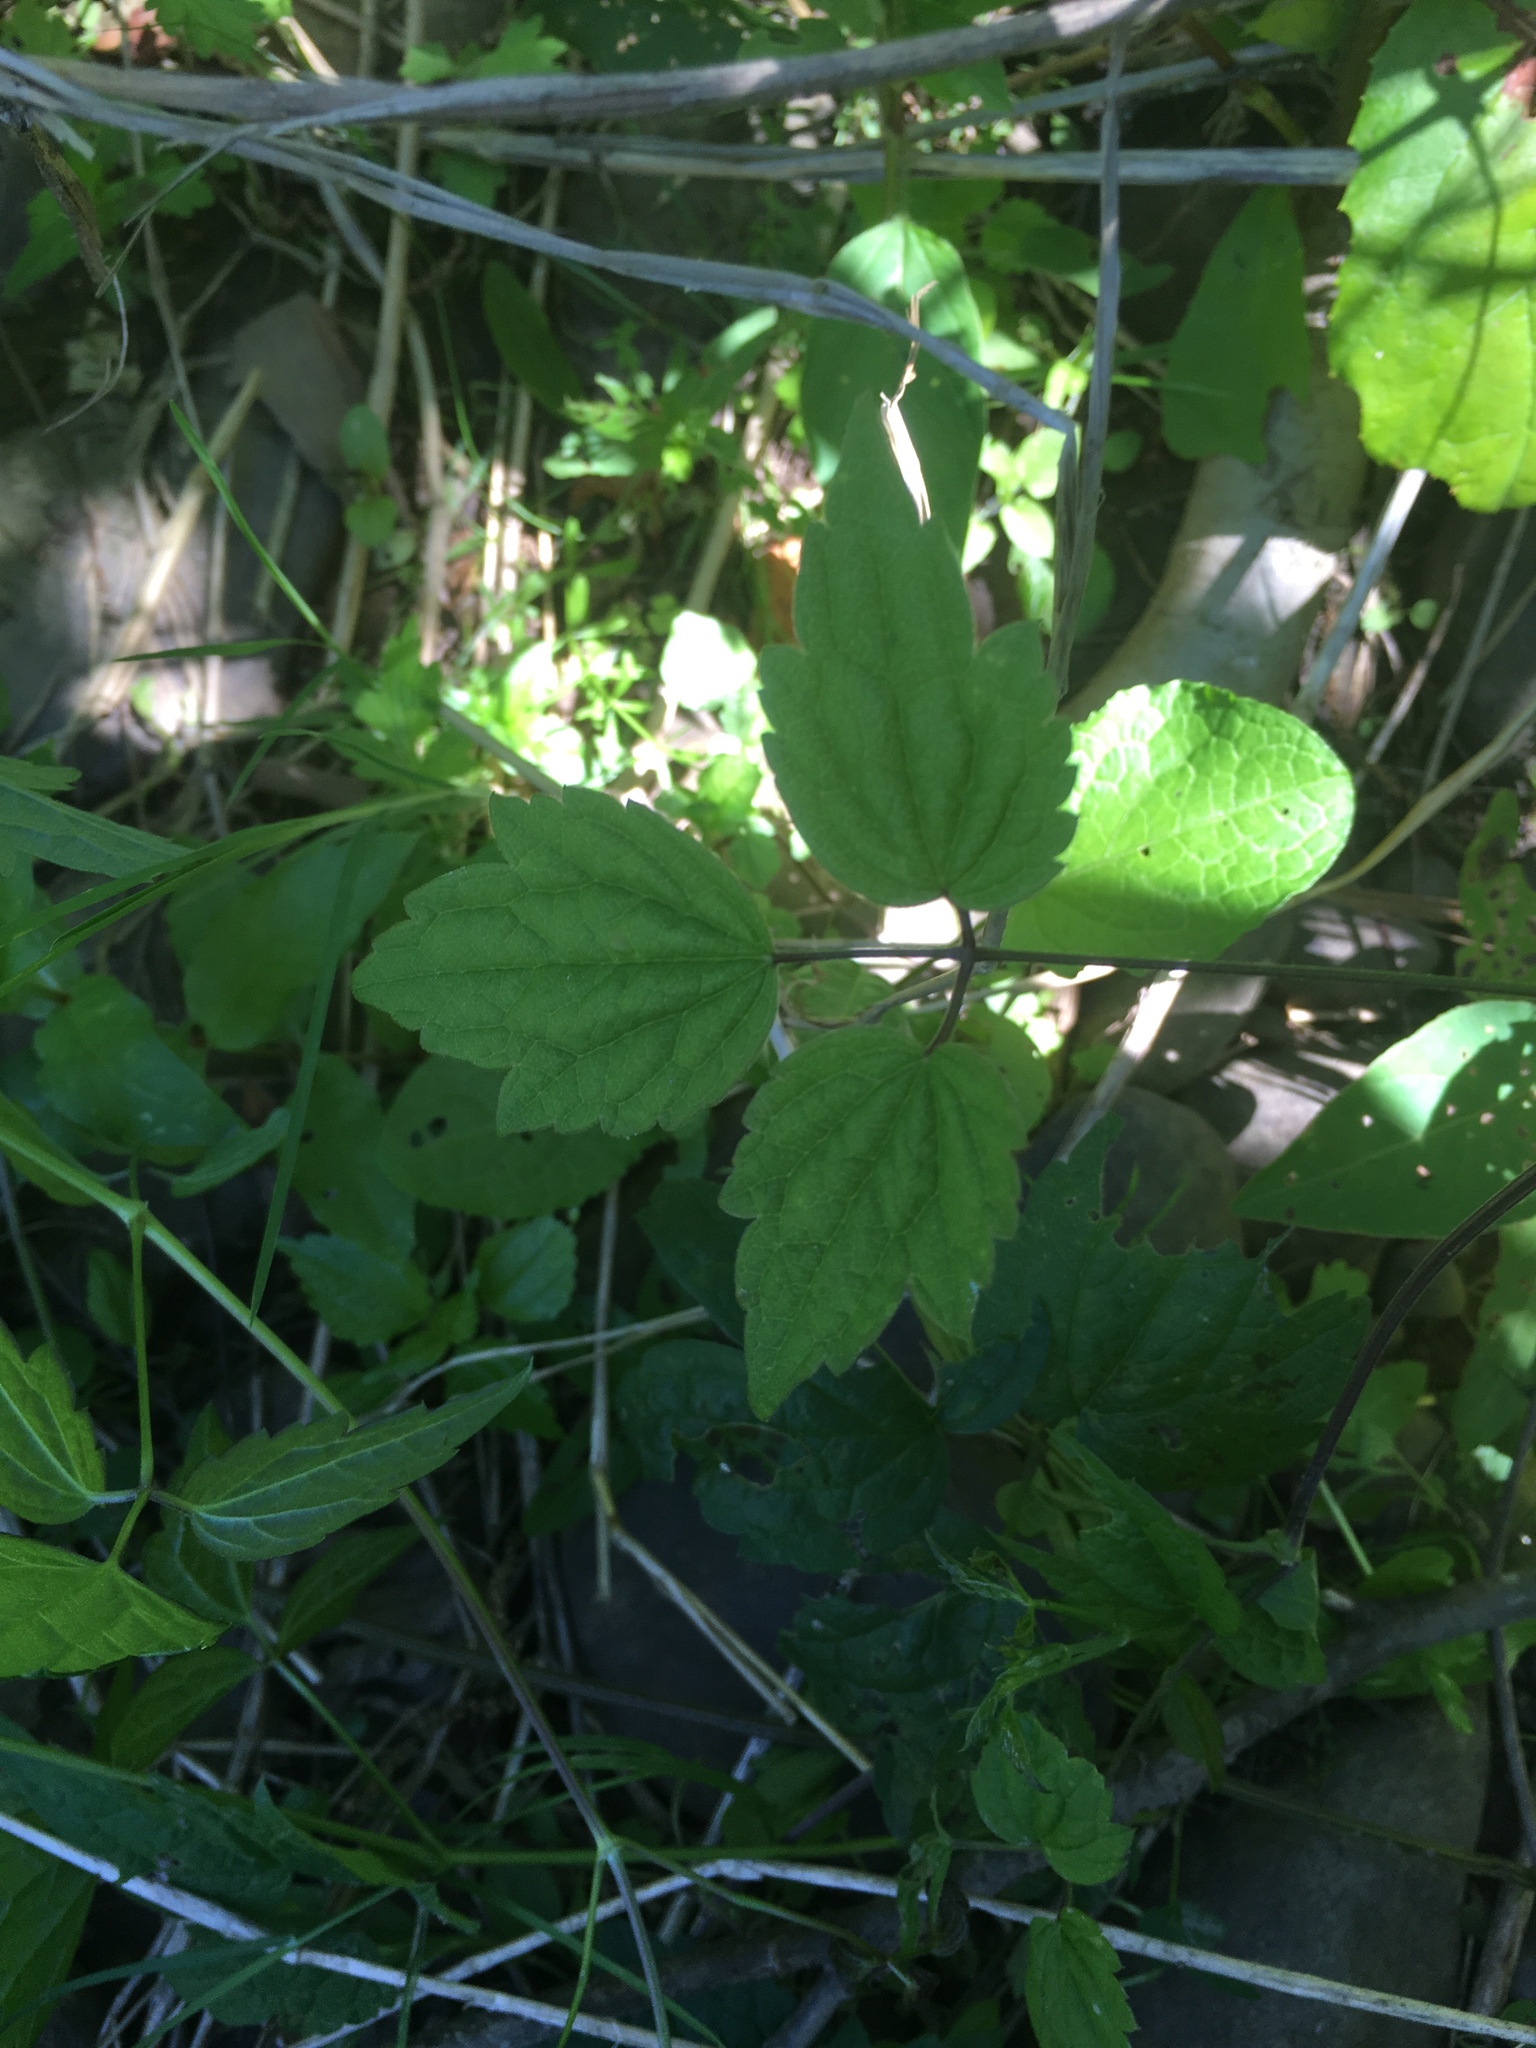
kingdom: Plantae
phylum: Tracheophyta
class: Magnoliopsida
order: Ranunculales
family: Ranunculaceae
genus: Clematis
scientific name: Clematis virginiana
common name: Virgin's-bower
